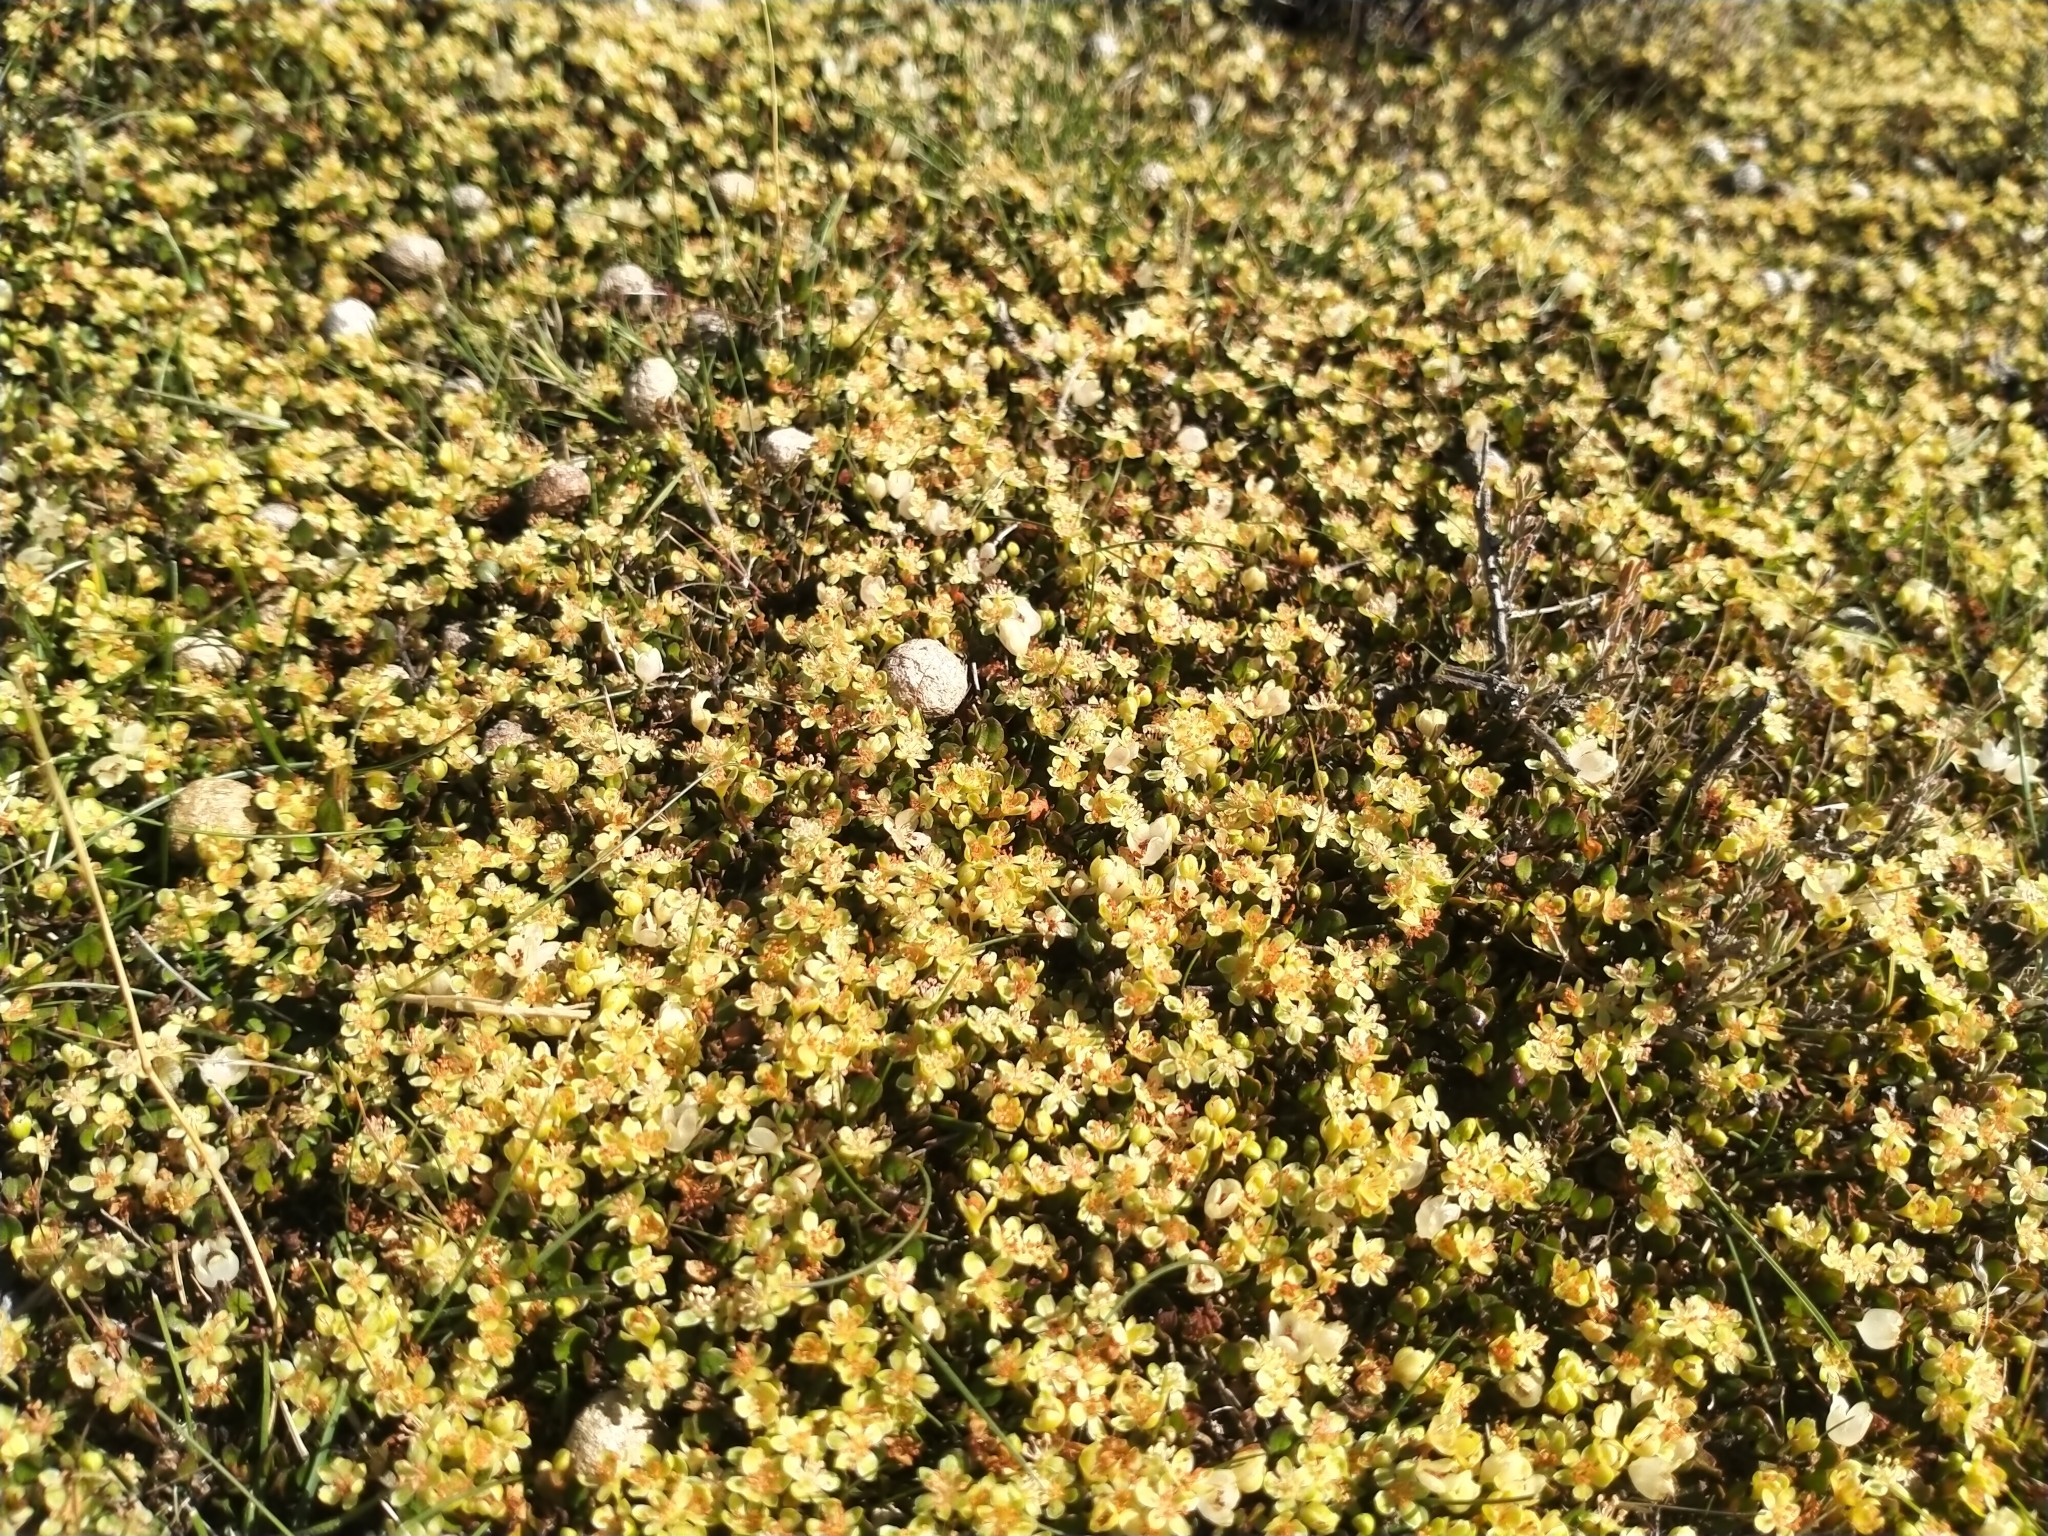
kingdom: Plantae
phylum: Tracheophyta
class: Magnoliopsida
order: Caryophyllales
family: Polygonaceae
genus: Muehlenbeckia
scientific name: Muehlenbeckia axillaris
